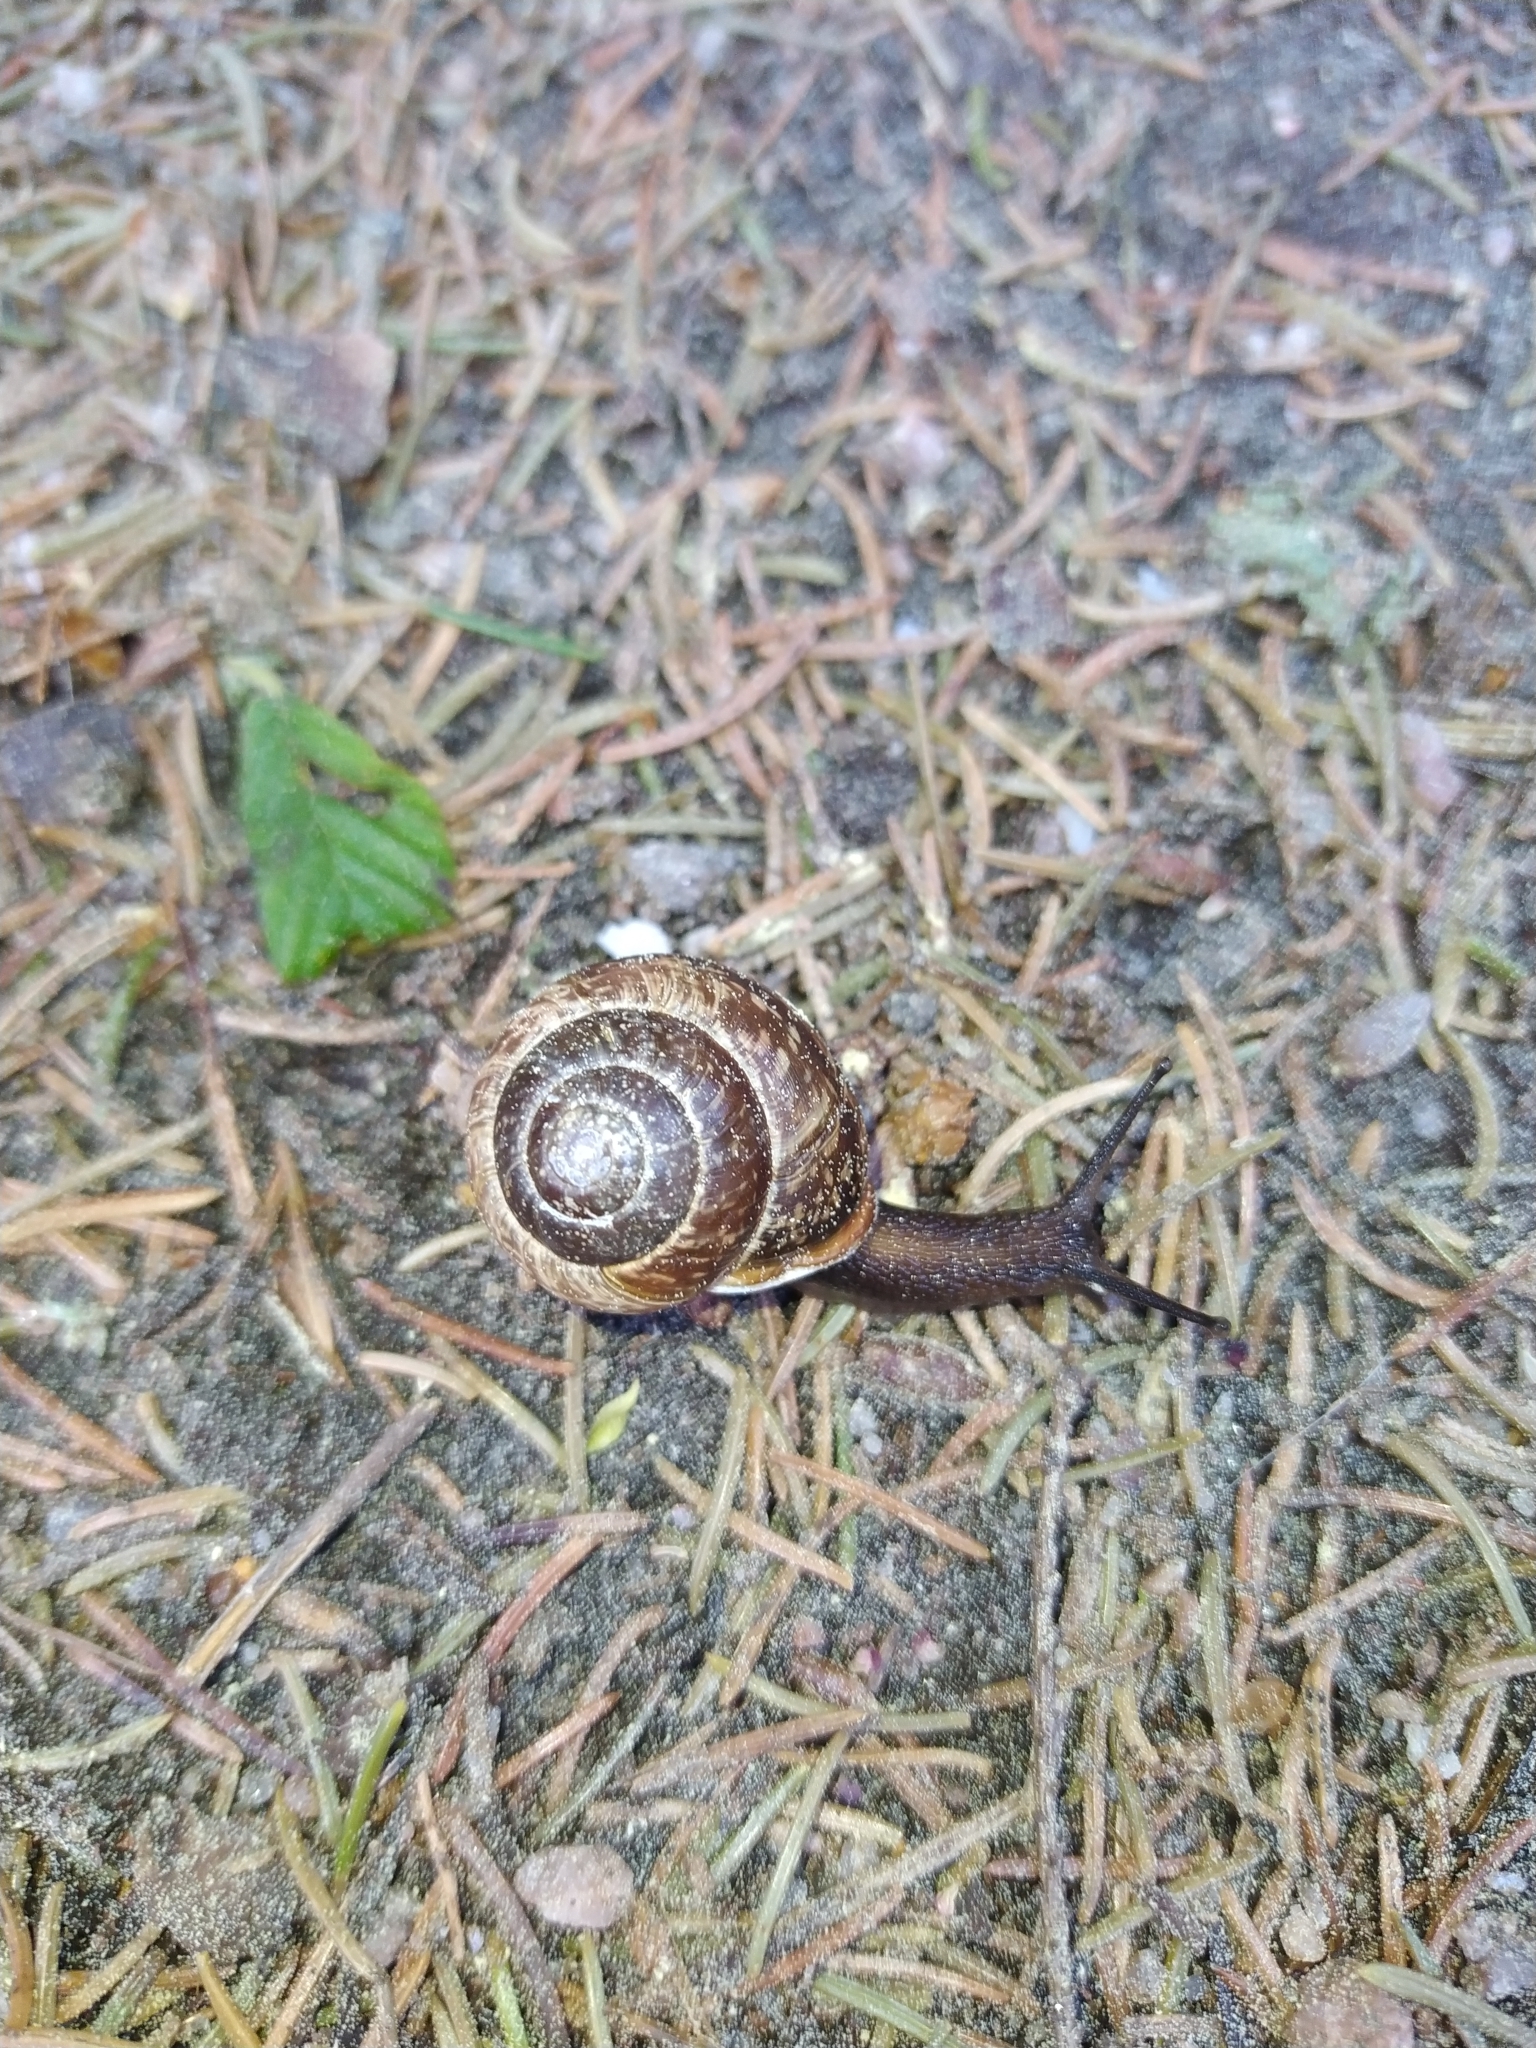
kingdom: Animalia
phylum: Mollusca
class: Gastropoda
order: Stylommatophora
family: Helicidae
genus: Arianta
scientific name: Arianta arbustorum
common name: Copse snail
